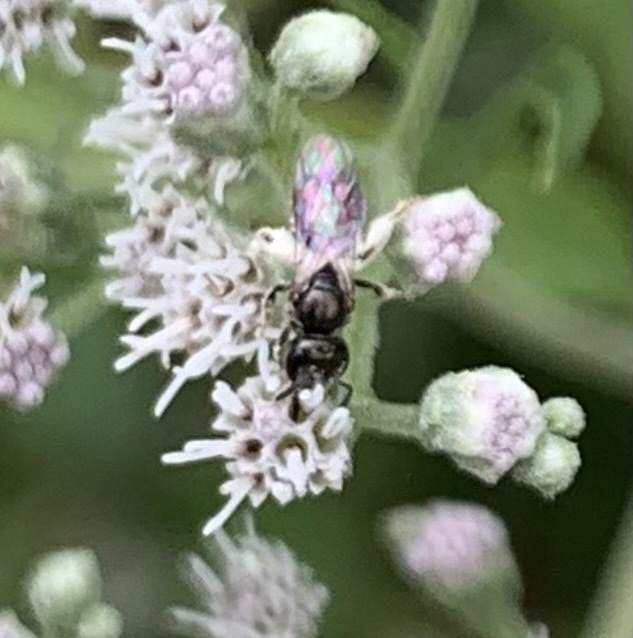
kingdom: Animalia
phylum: Arthropoda
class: Insecta
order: Hymenoptera
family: Halictidae
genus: Dialictus
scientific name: Dialictus
